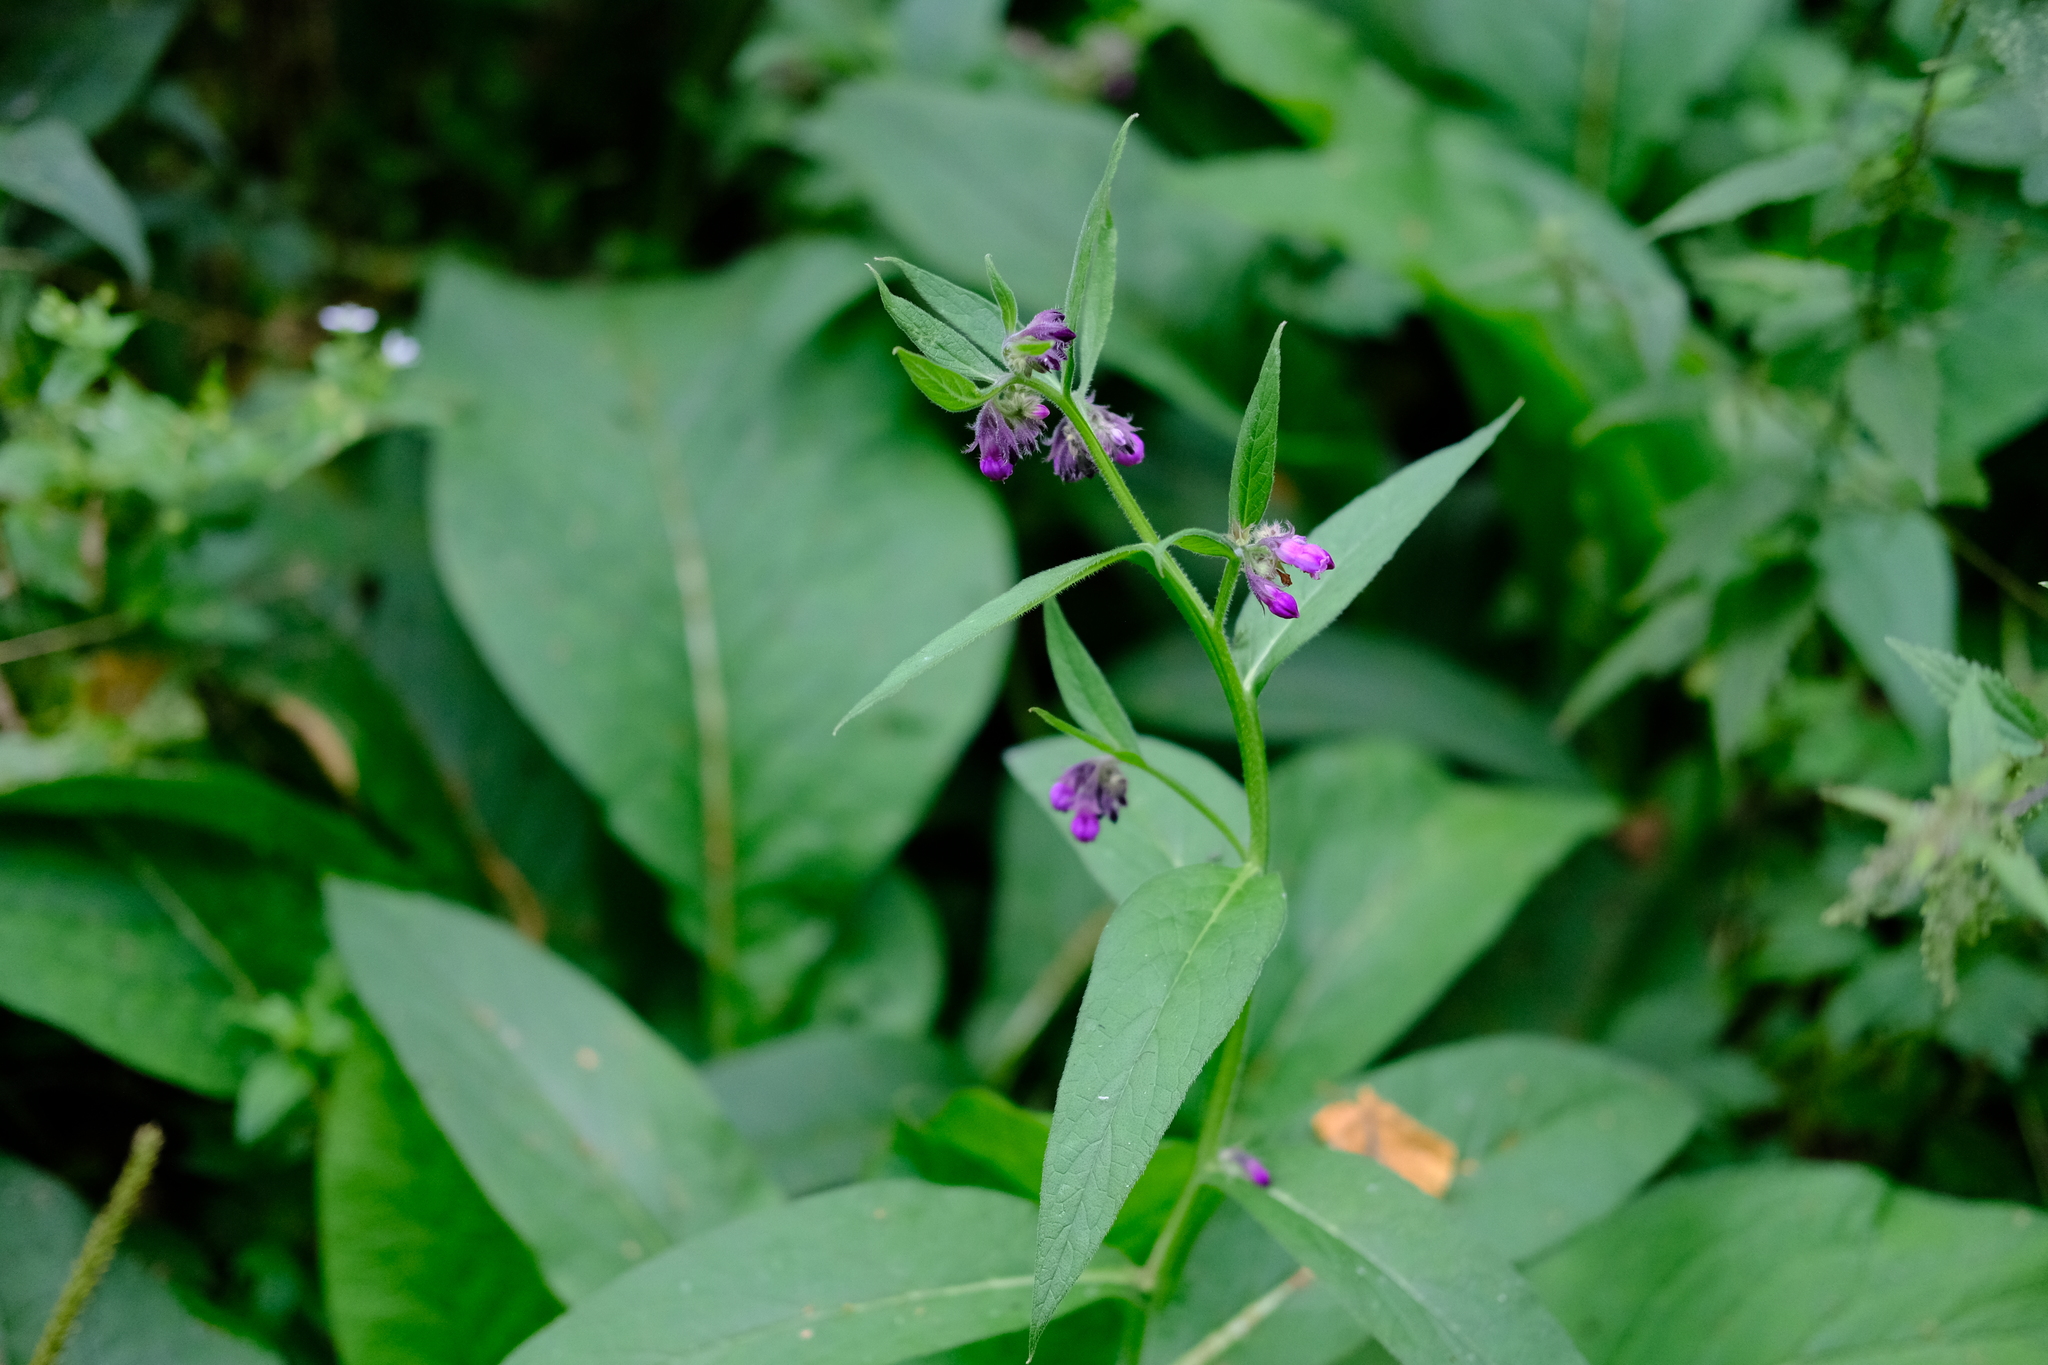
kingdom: Plantae
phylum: Tracheophyta
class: Magnoliopsida
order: Boraginales
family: Boraginaceae
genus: Symphytum
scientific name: Symphytum officinale
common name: Common comfrey
